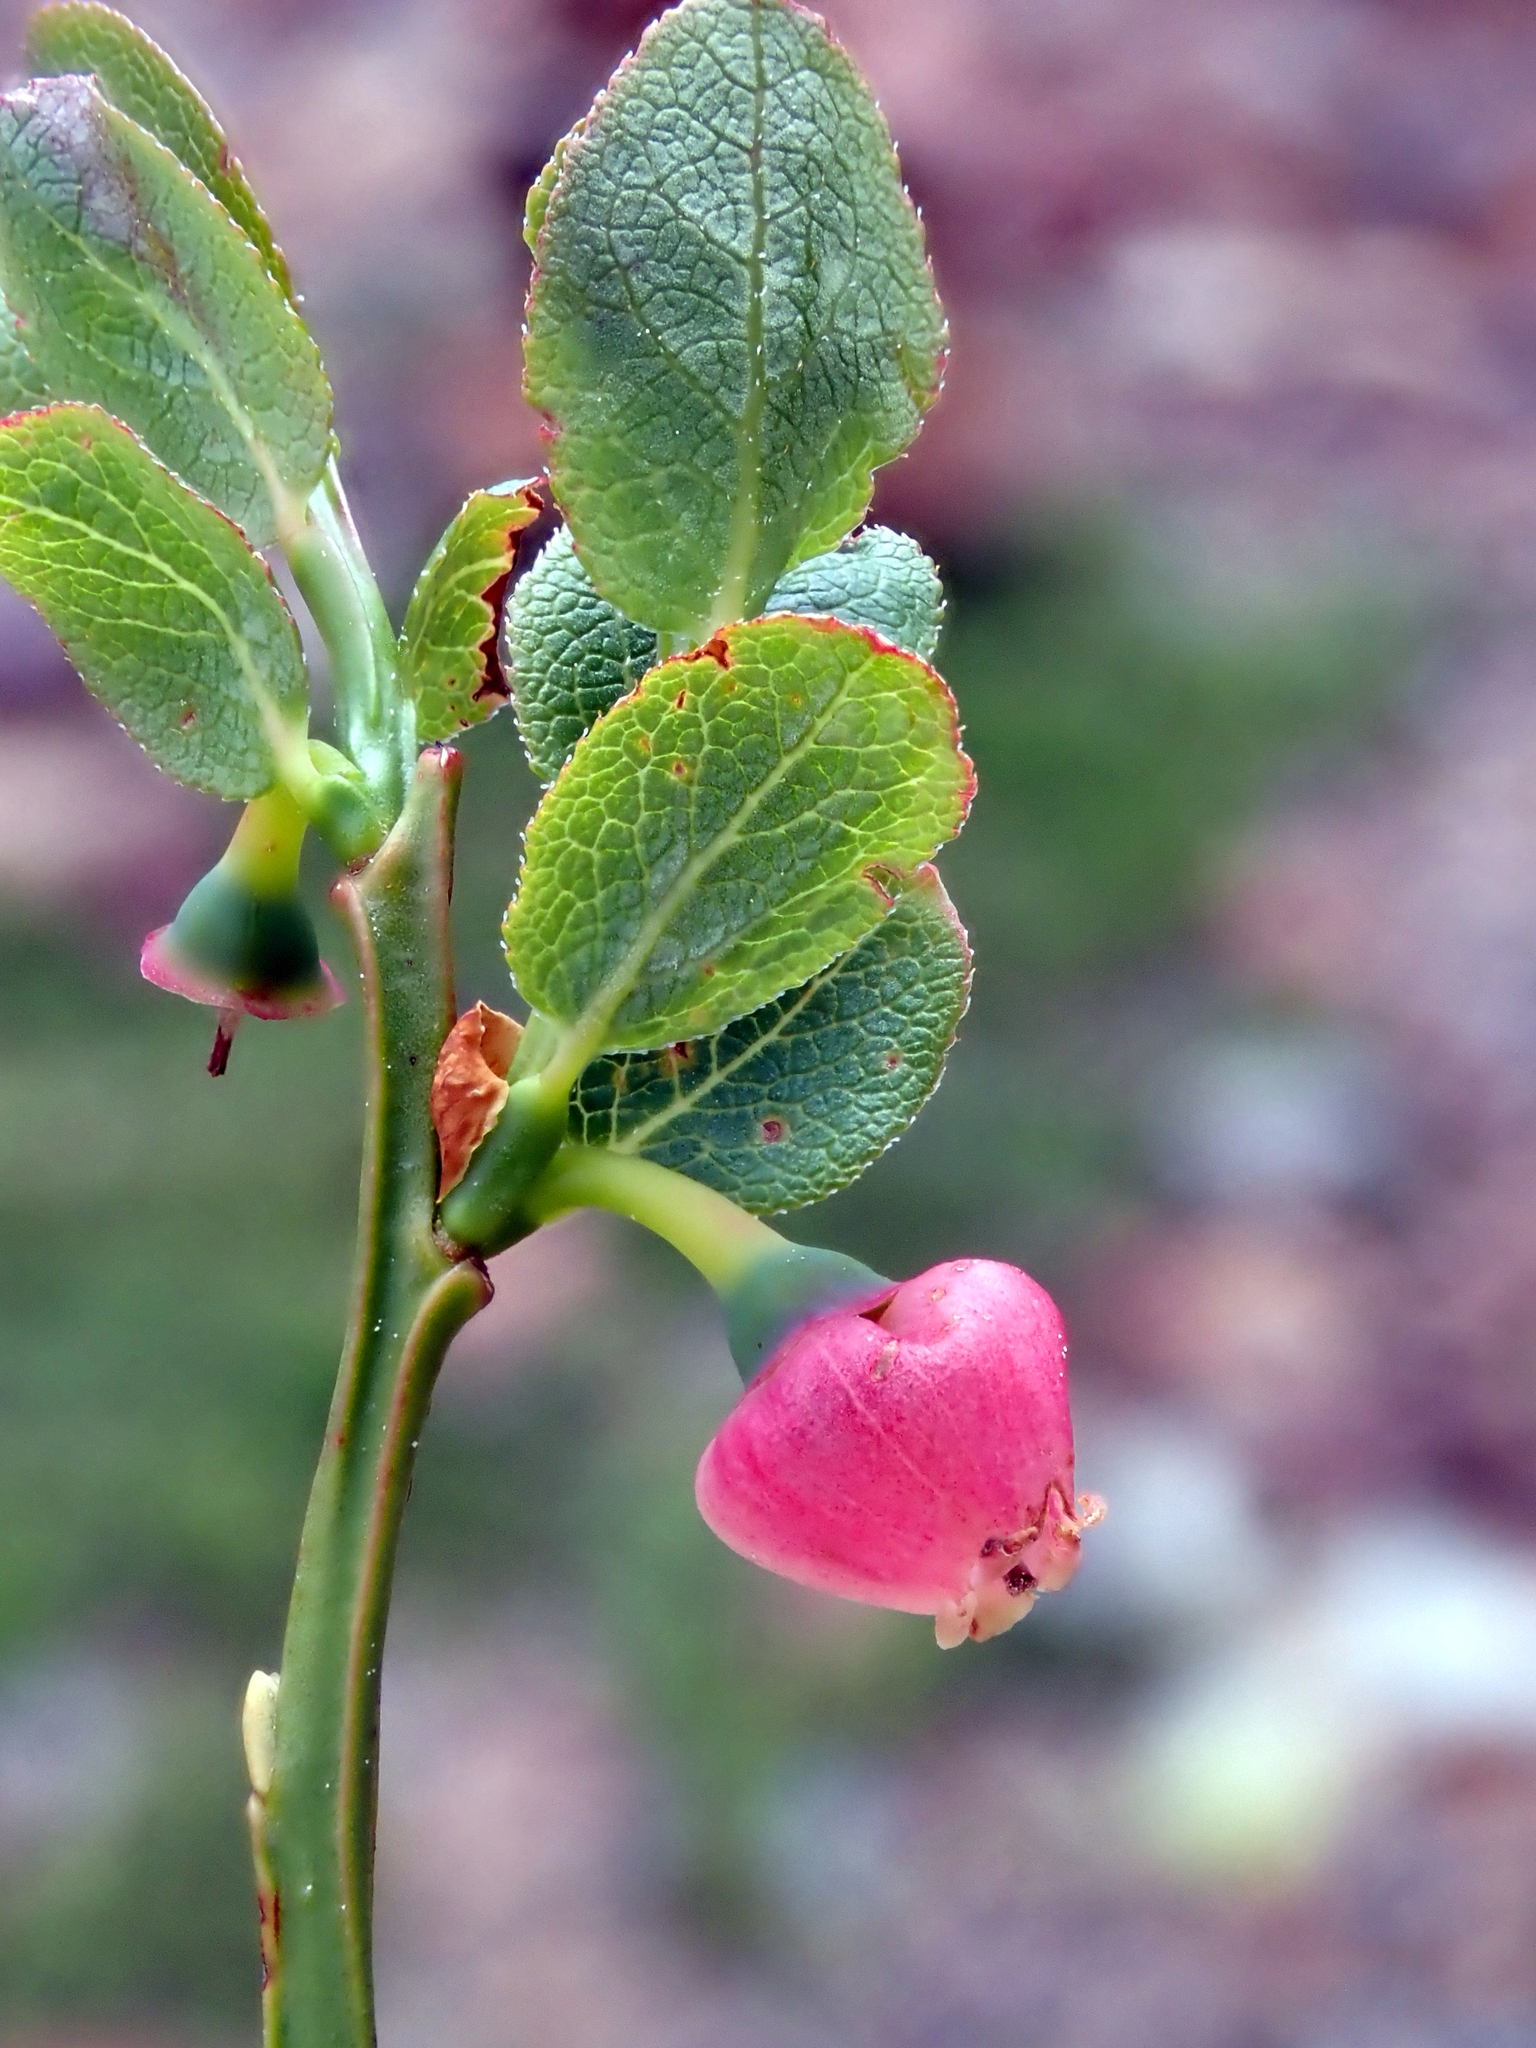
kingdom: Plantae
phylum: Tracheophyta
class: Magnoliopsida
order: Ericales
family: Ericaceae
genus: Vaccinium
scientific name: Vaccinium myrtillus
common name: Bilberry
